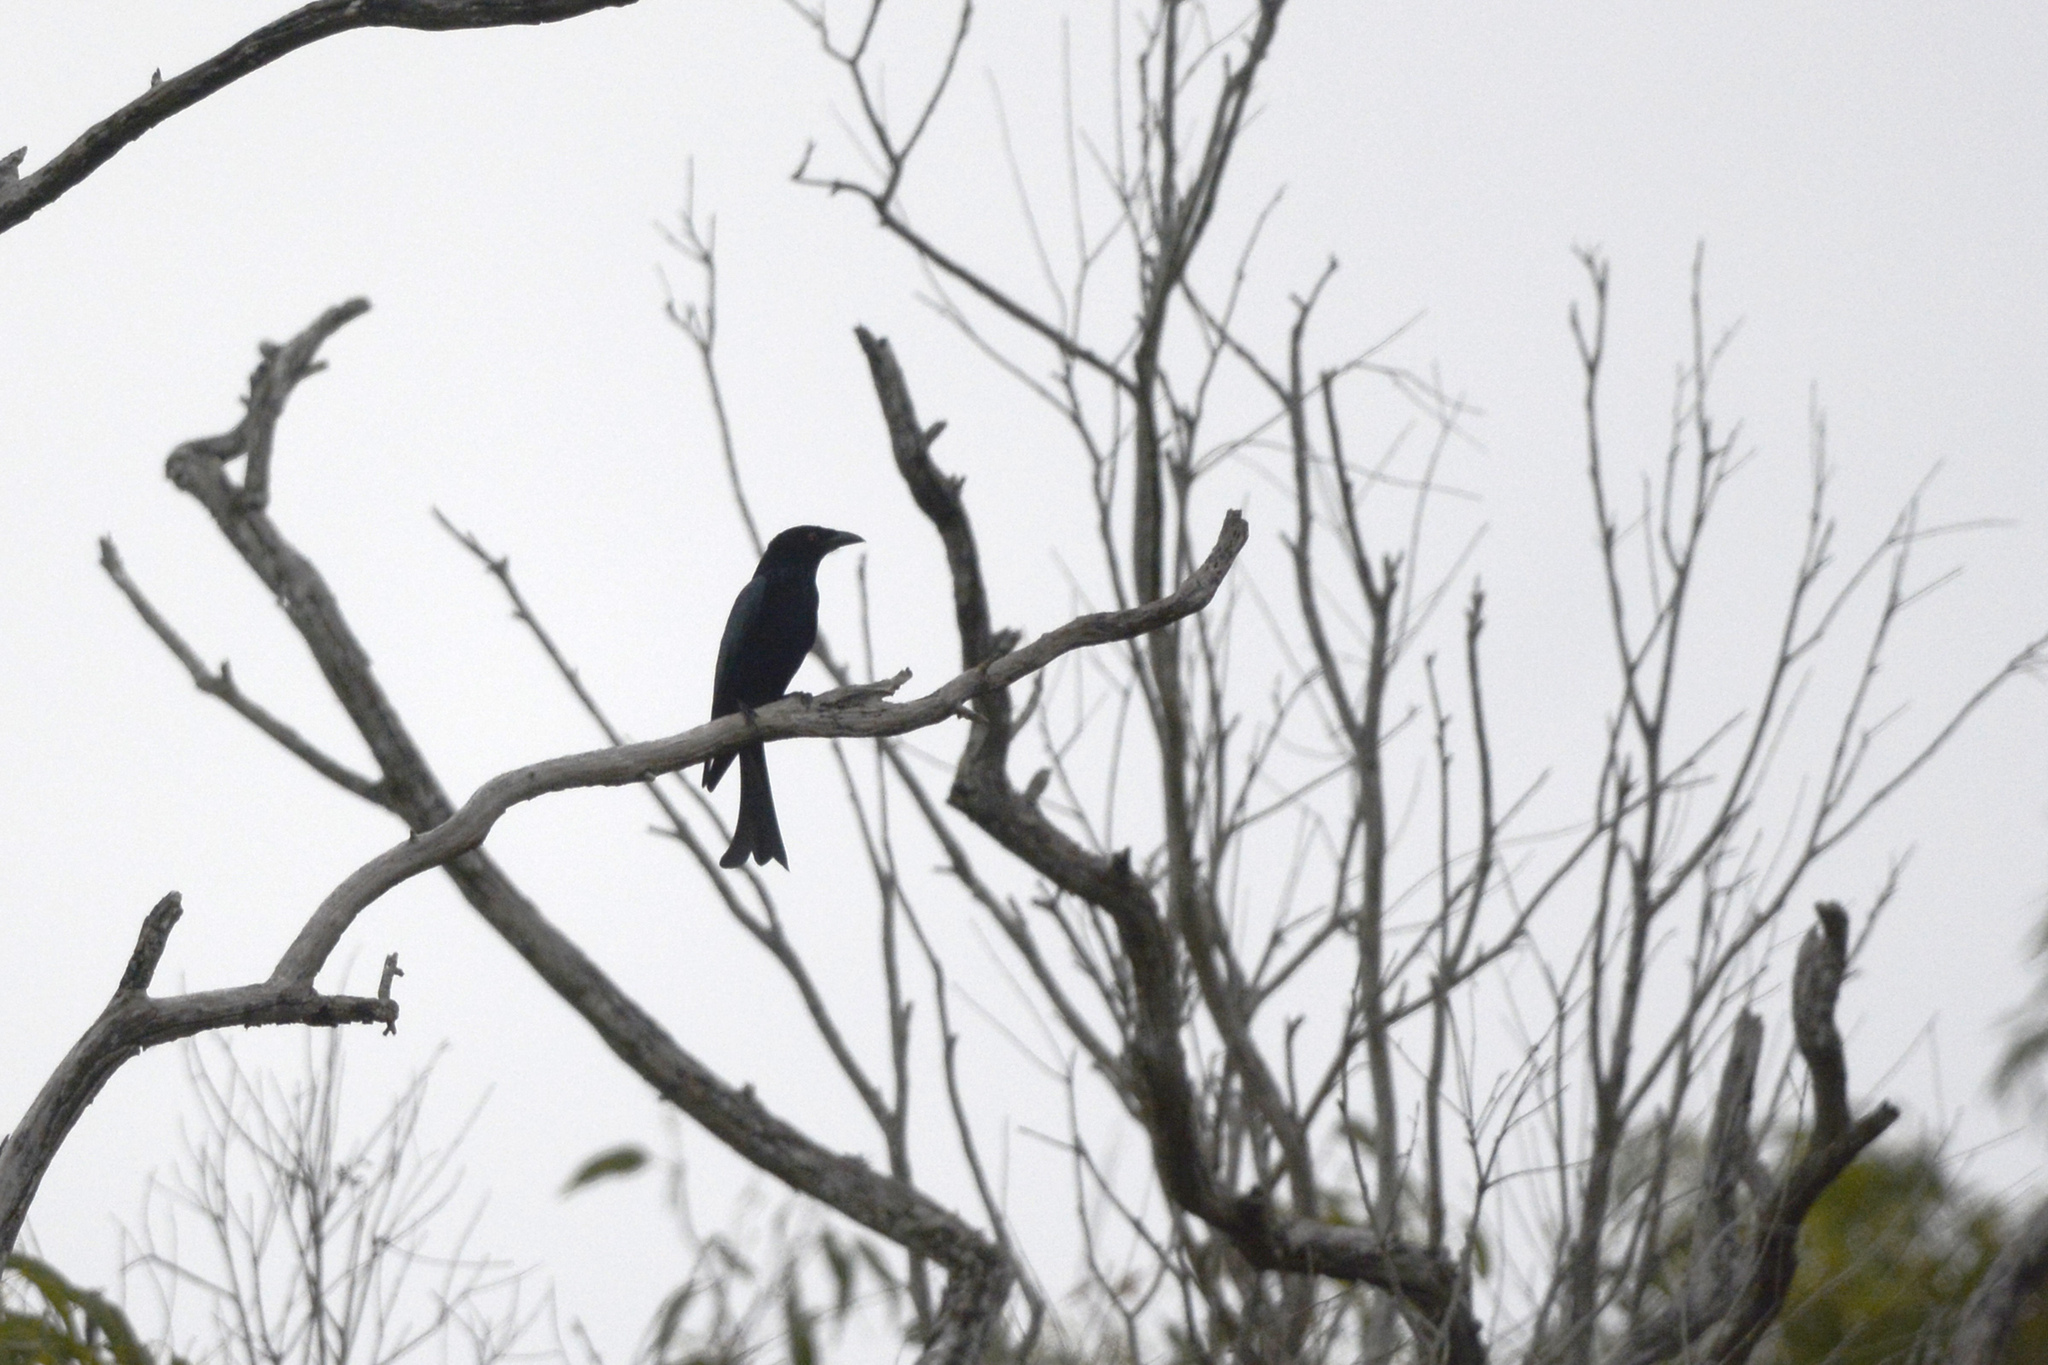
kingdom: Animalia
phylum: Chordata
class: Aves
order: Passeriformes
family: Dicruridae
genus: Dicrurus
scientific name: Dicrurus bracteatus
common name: Spangled drongo
